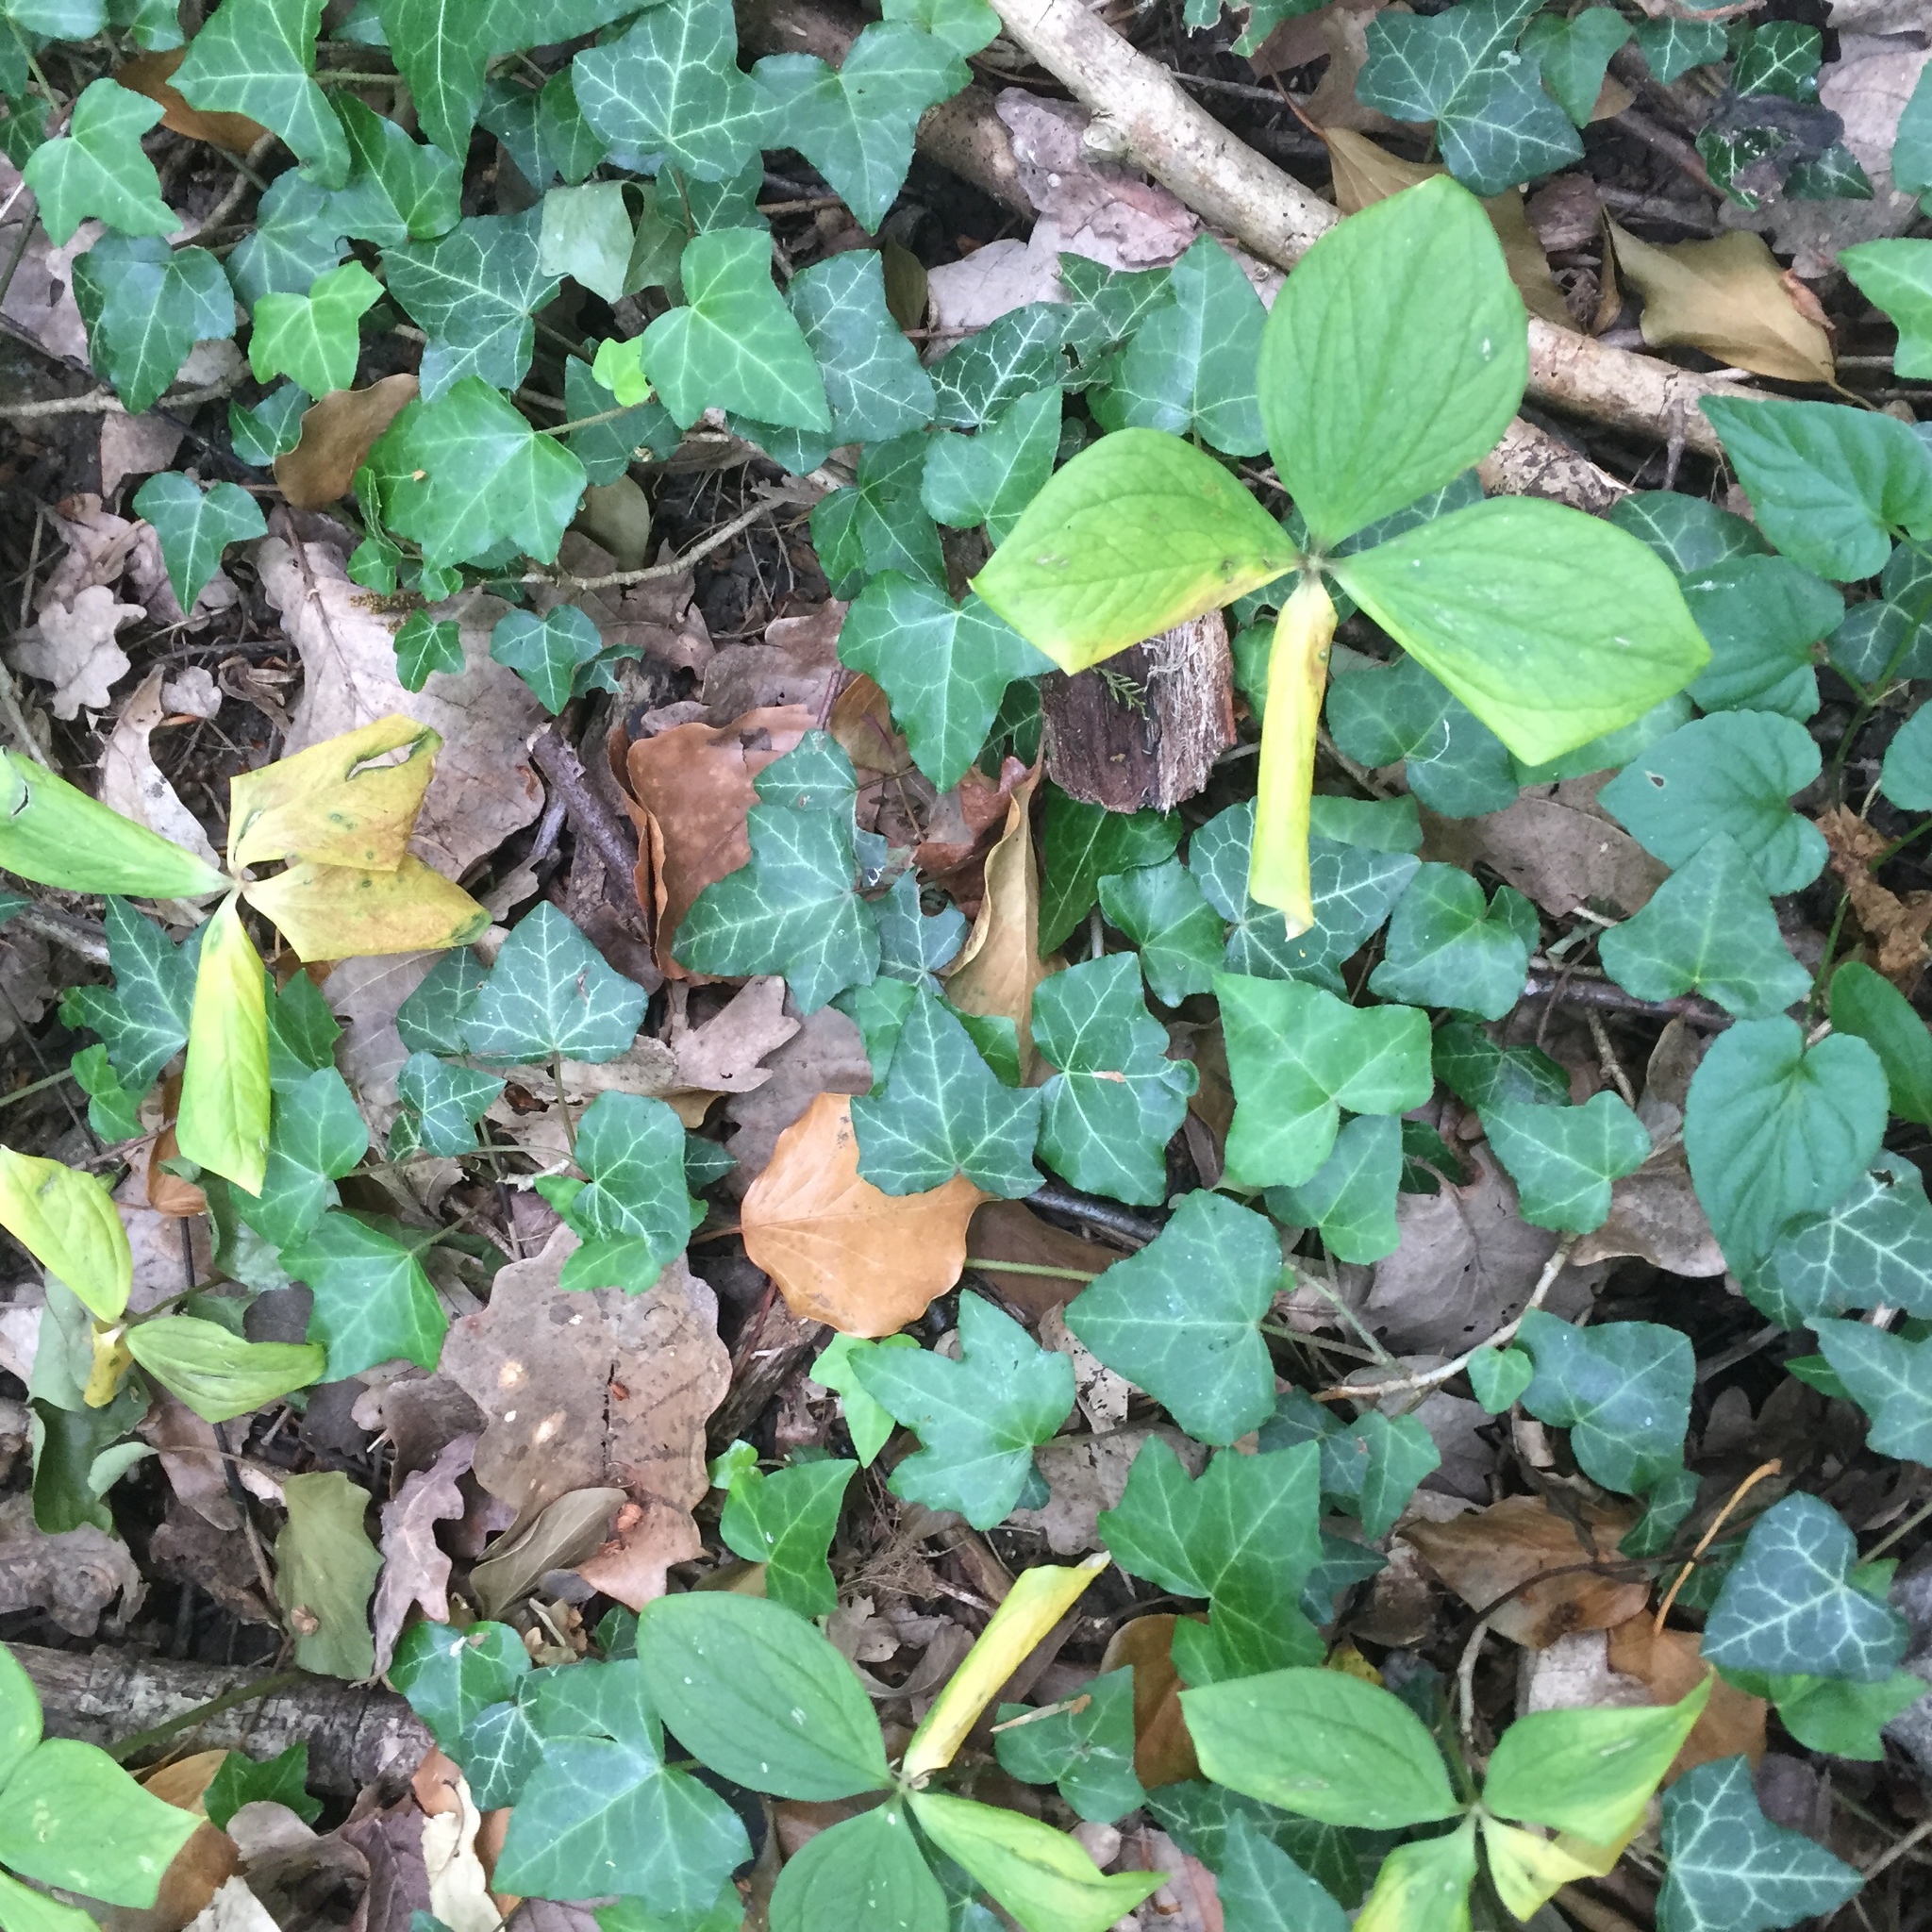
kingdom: Plantae
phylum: Tracheophyta
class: Liliopsida
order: Liliales
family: Melanthiaceae
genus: Paris
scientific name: Paris quadrifolia
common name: Herb-paris
